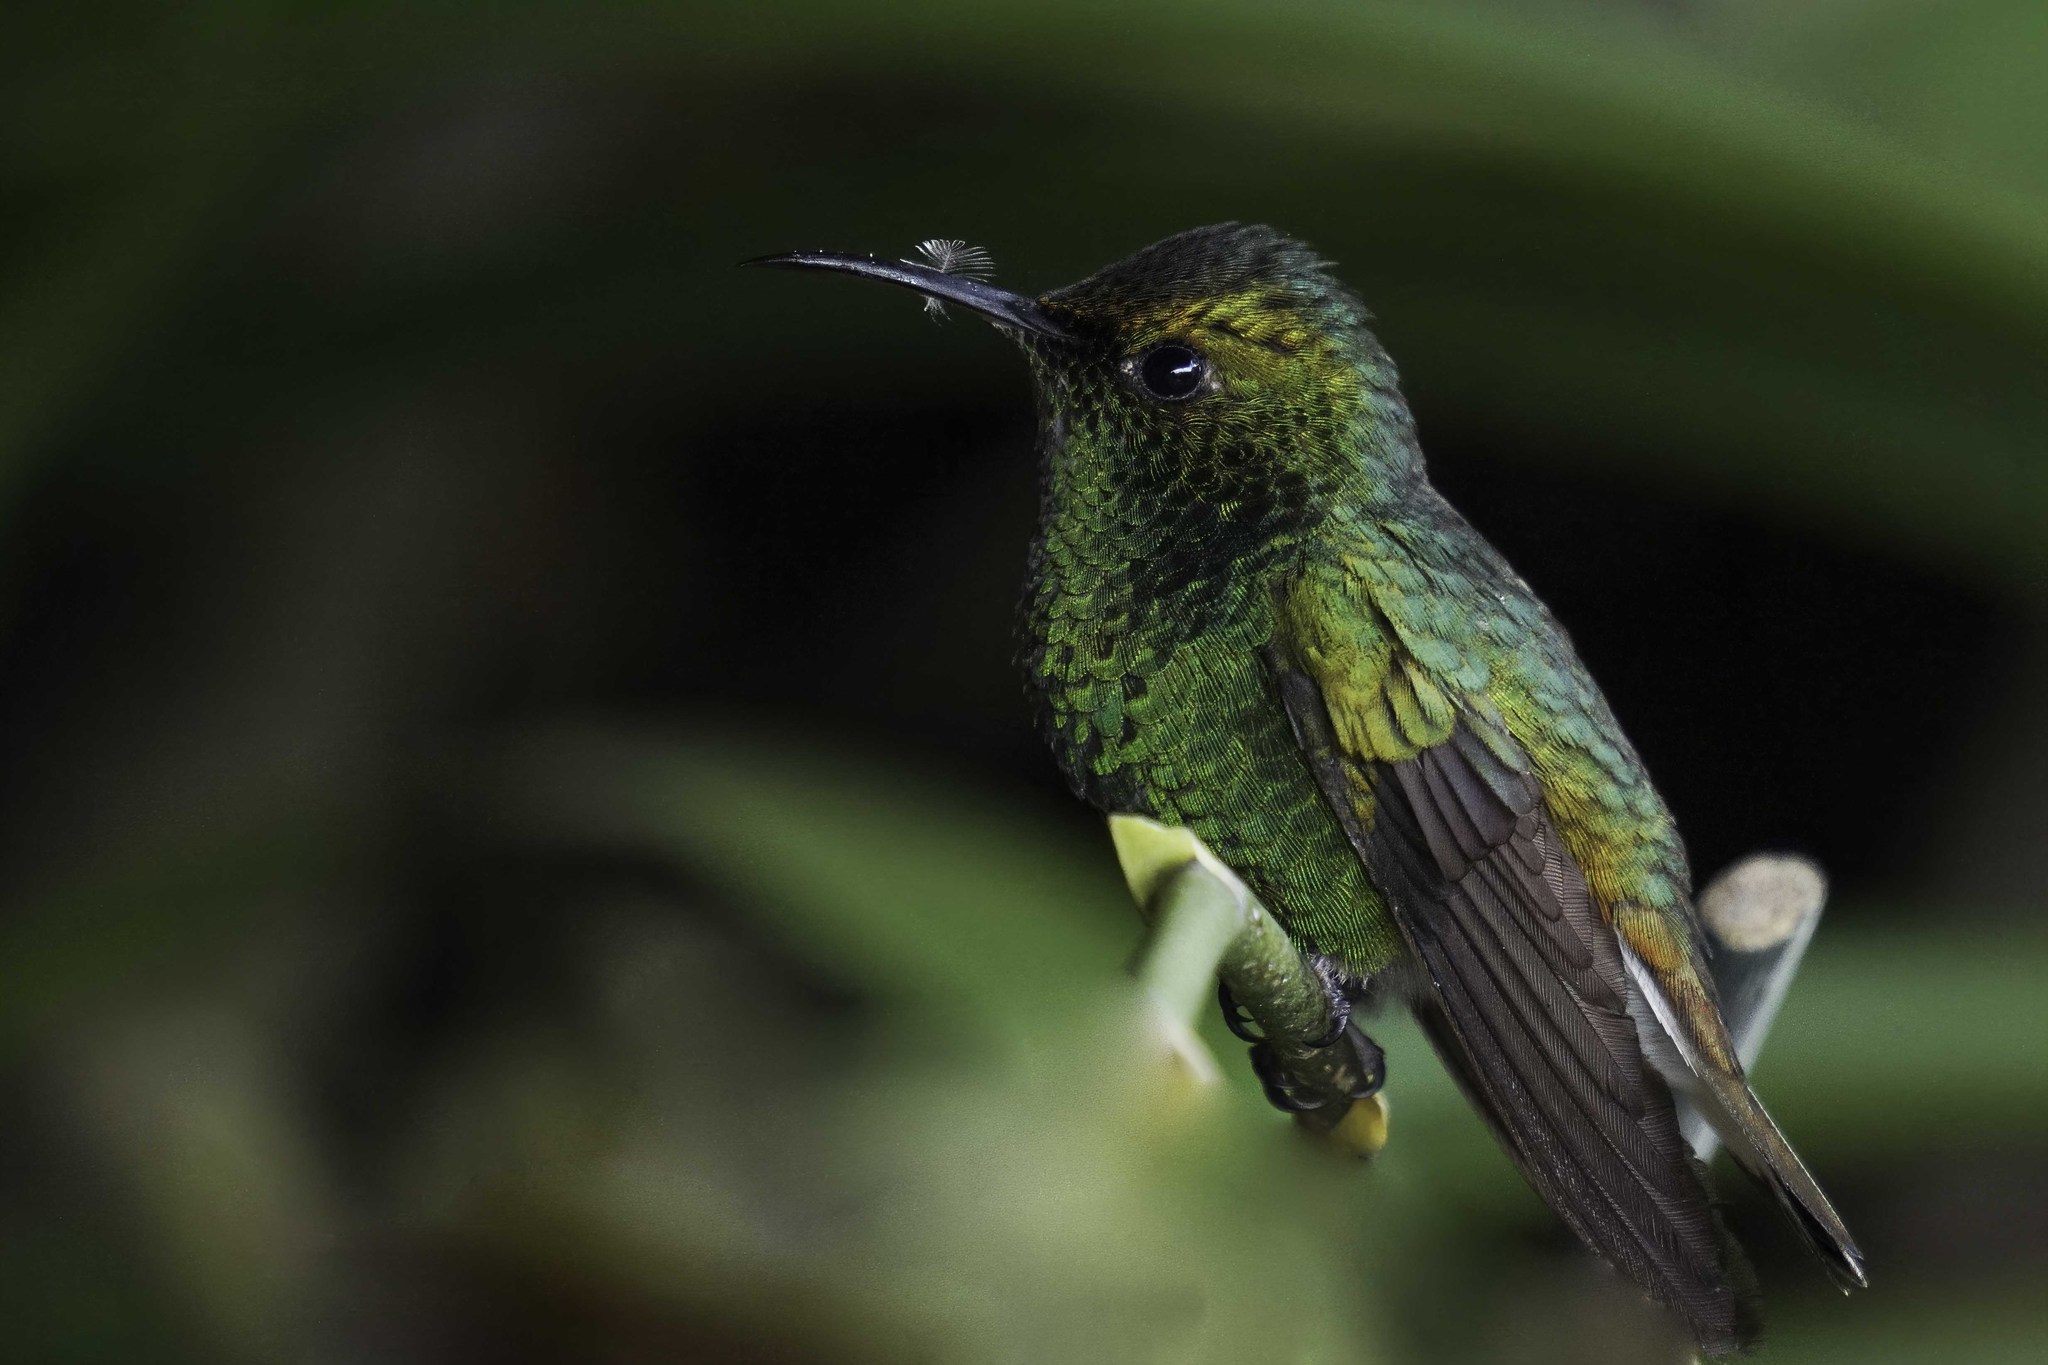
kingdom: Animalia
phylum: Chordata
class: Aves
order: Apodiformes
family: Trochilidae
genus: Microchera
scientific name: Microchera cupreiceps
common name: Coppery-headed emerald
